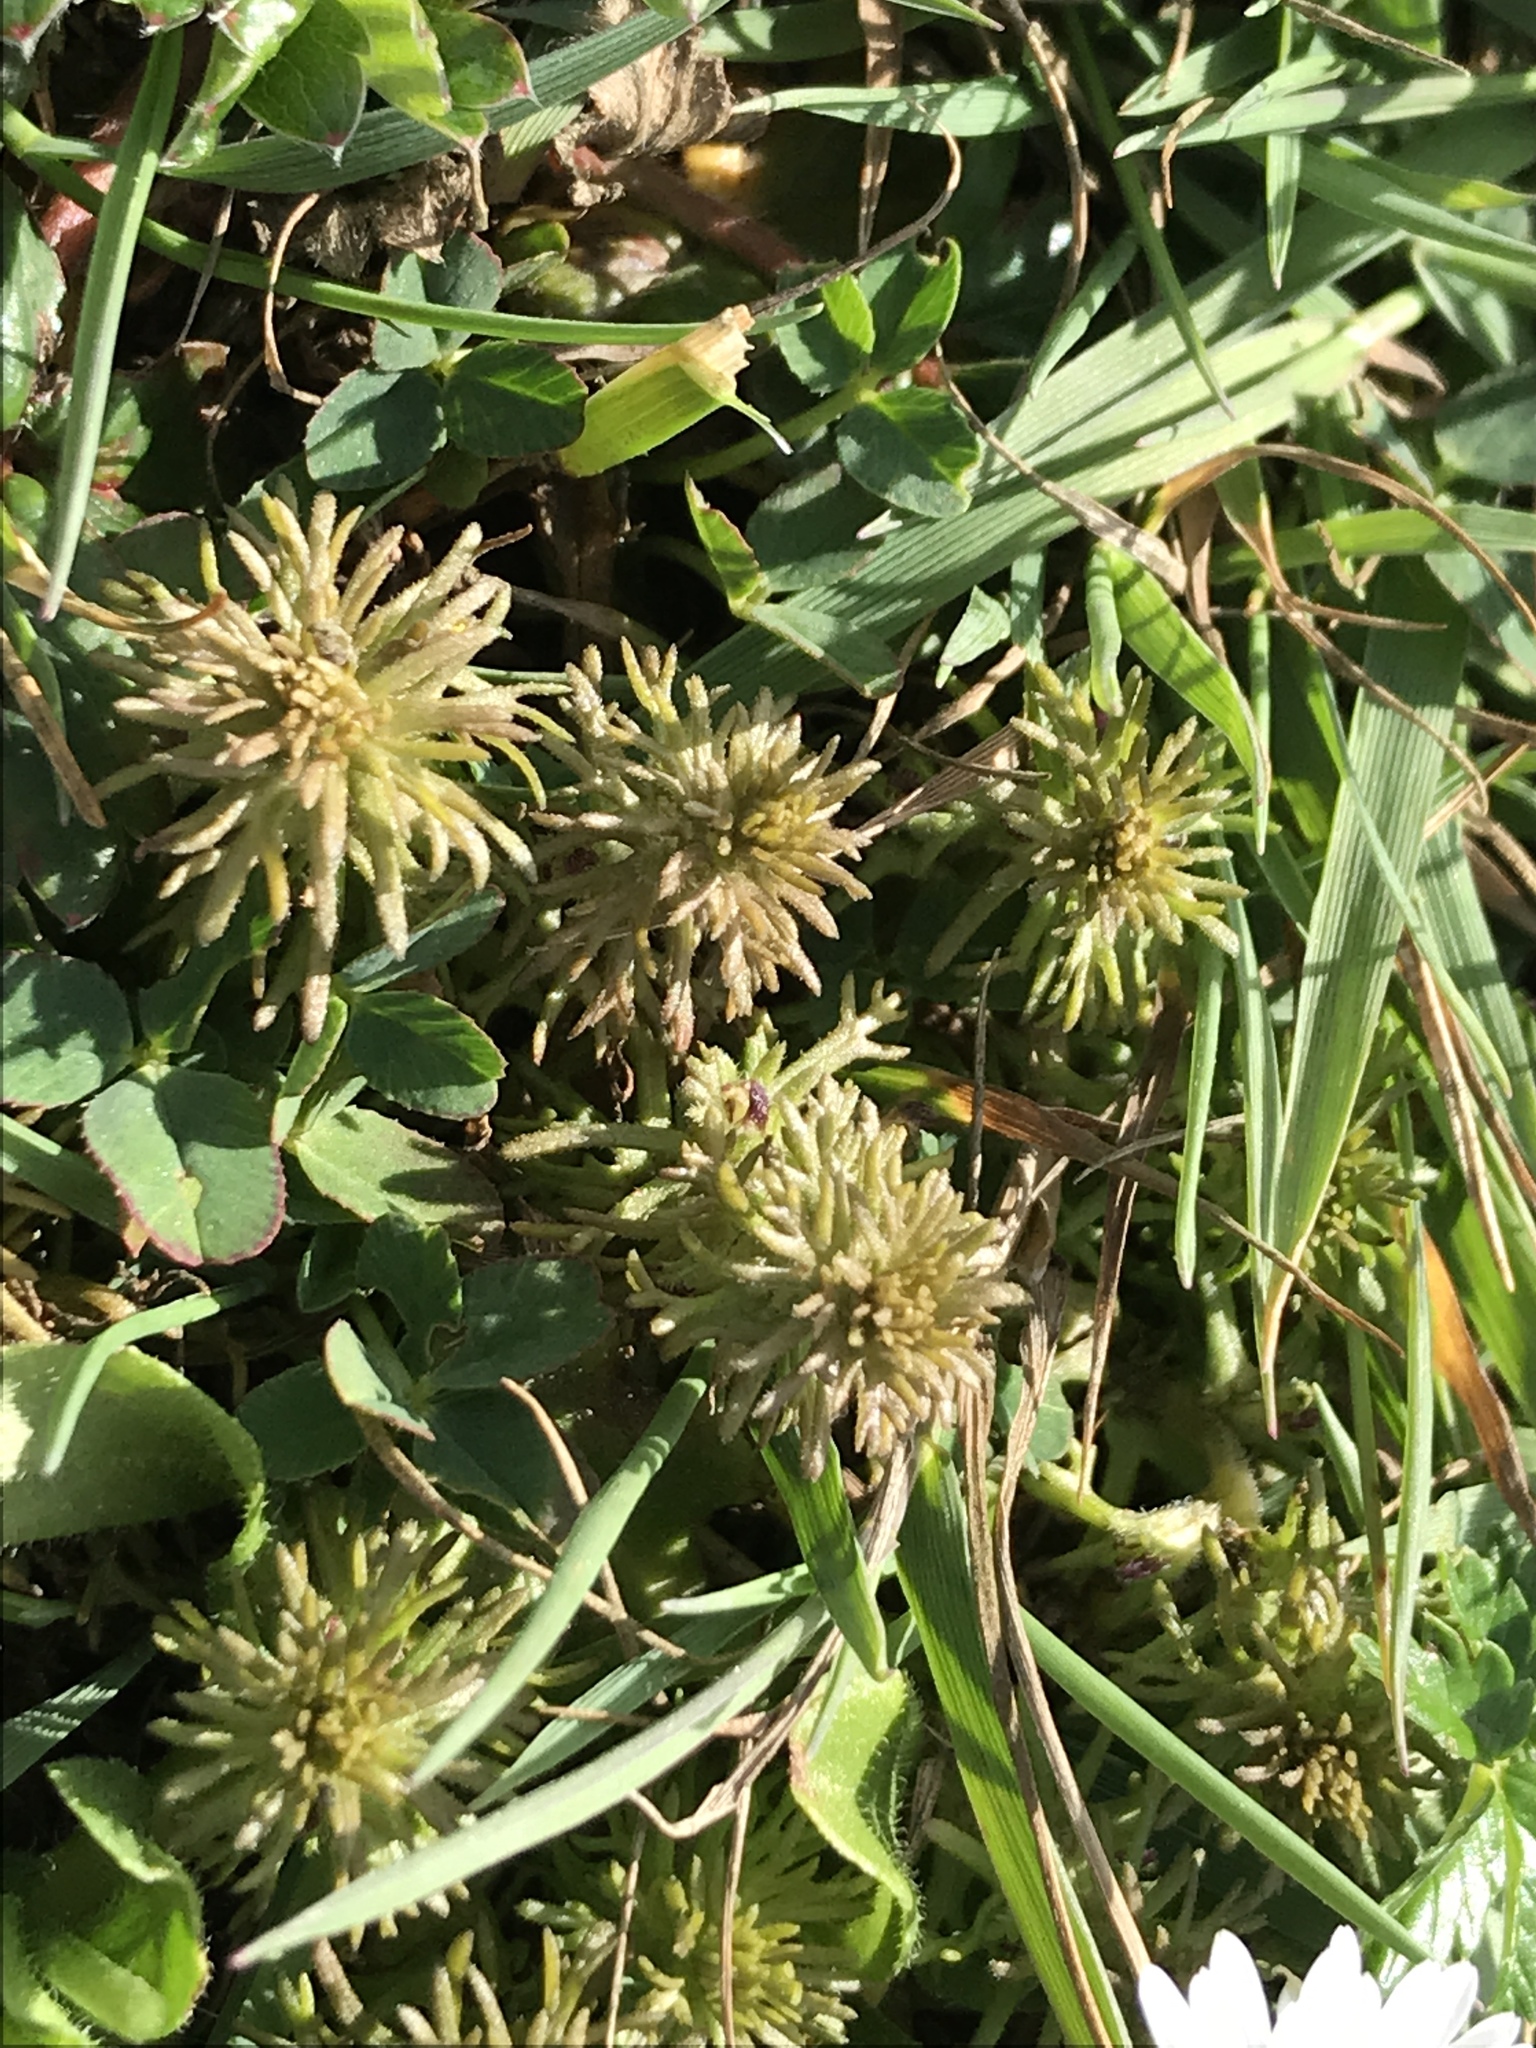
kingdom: Plantae
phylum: Tracheophyta
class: Magnoliopsida
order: Lamiales
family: Orobanchaceae
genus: Triphysaria
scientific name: Triphysaria pusilla
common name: Dwarf false owl-clover
